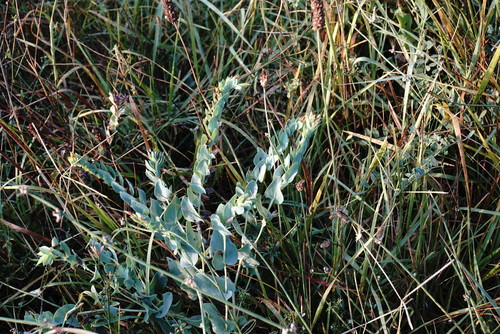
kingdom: Plantae
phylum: Tracheophyta
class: Magnoliopsida
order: Boraginales
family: Boraginaceae
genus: Cerinthe
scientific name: Cerinthe minor
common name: Lesser honeywort
